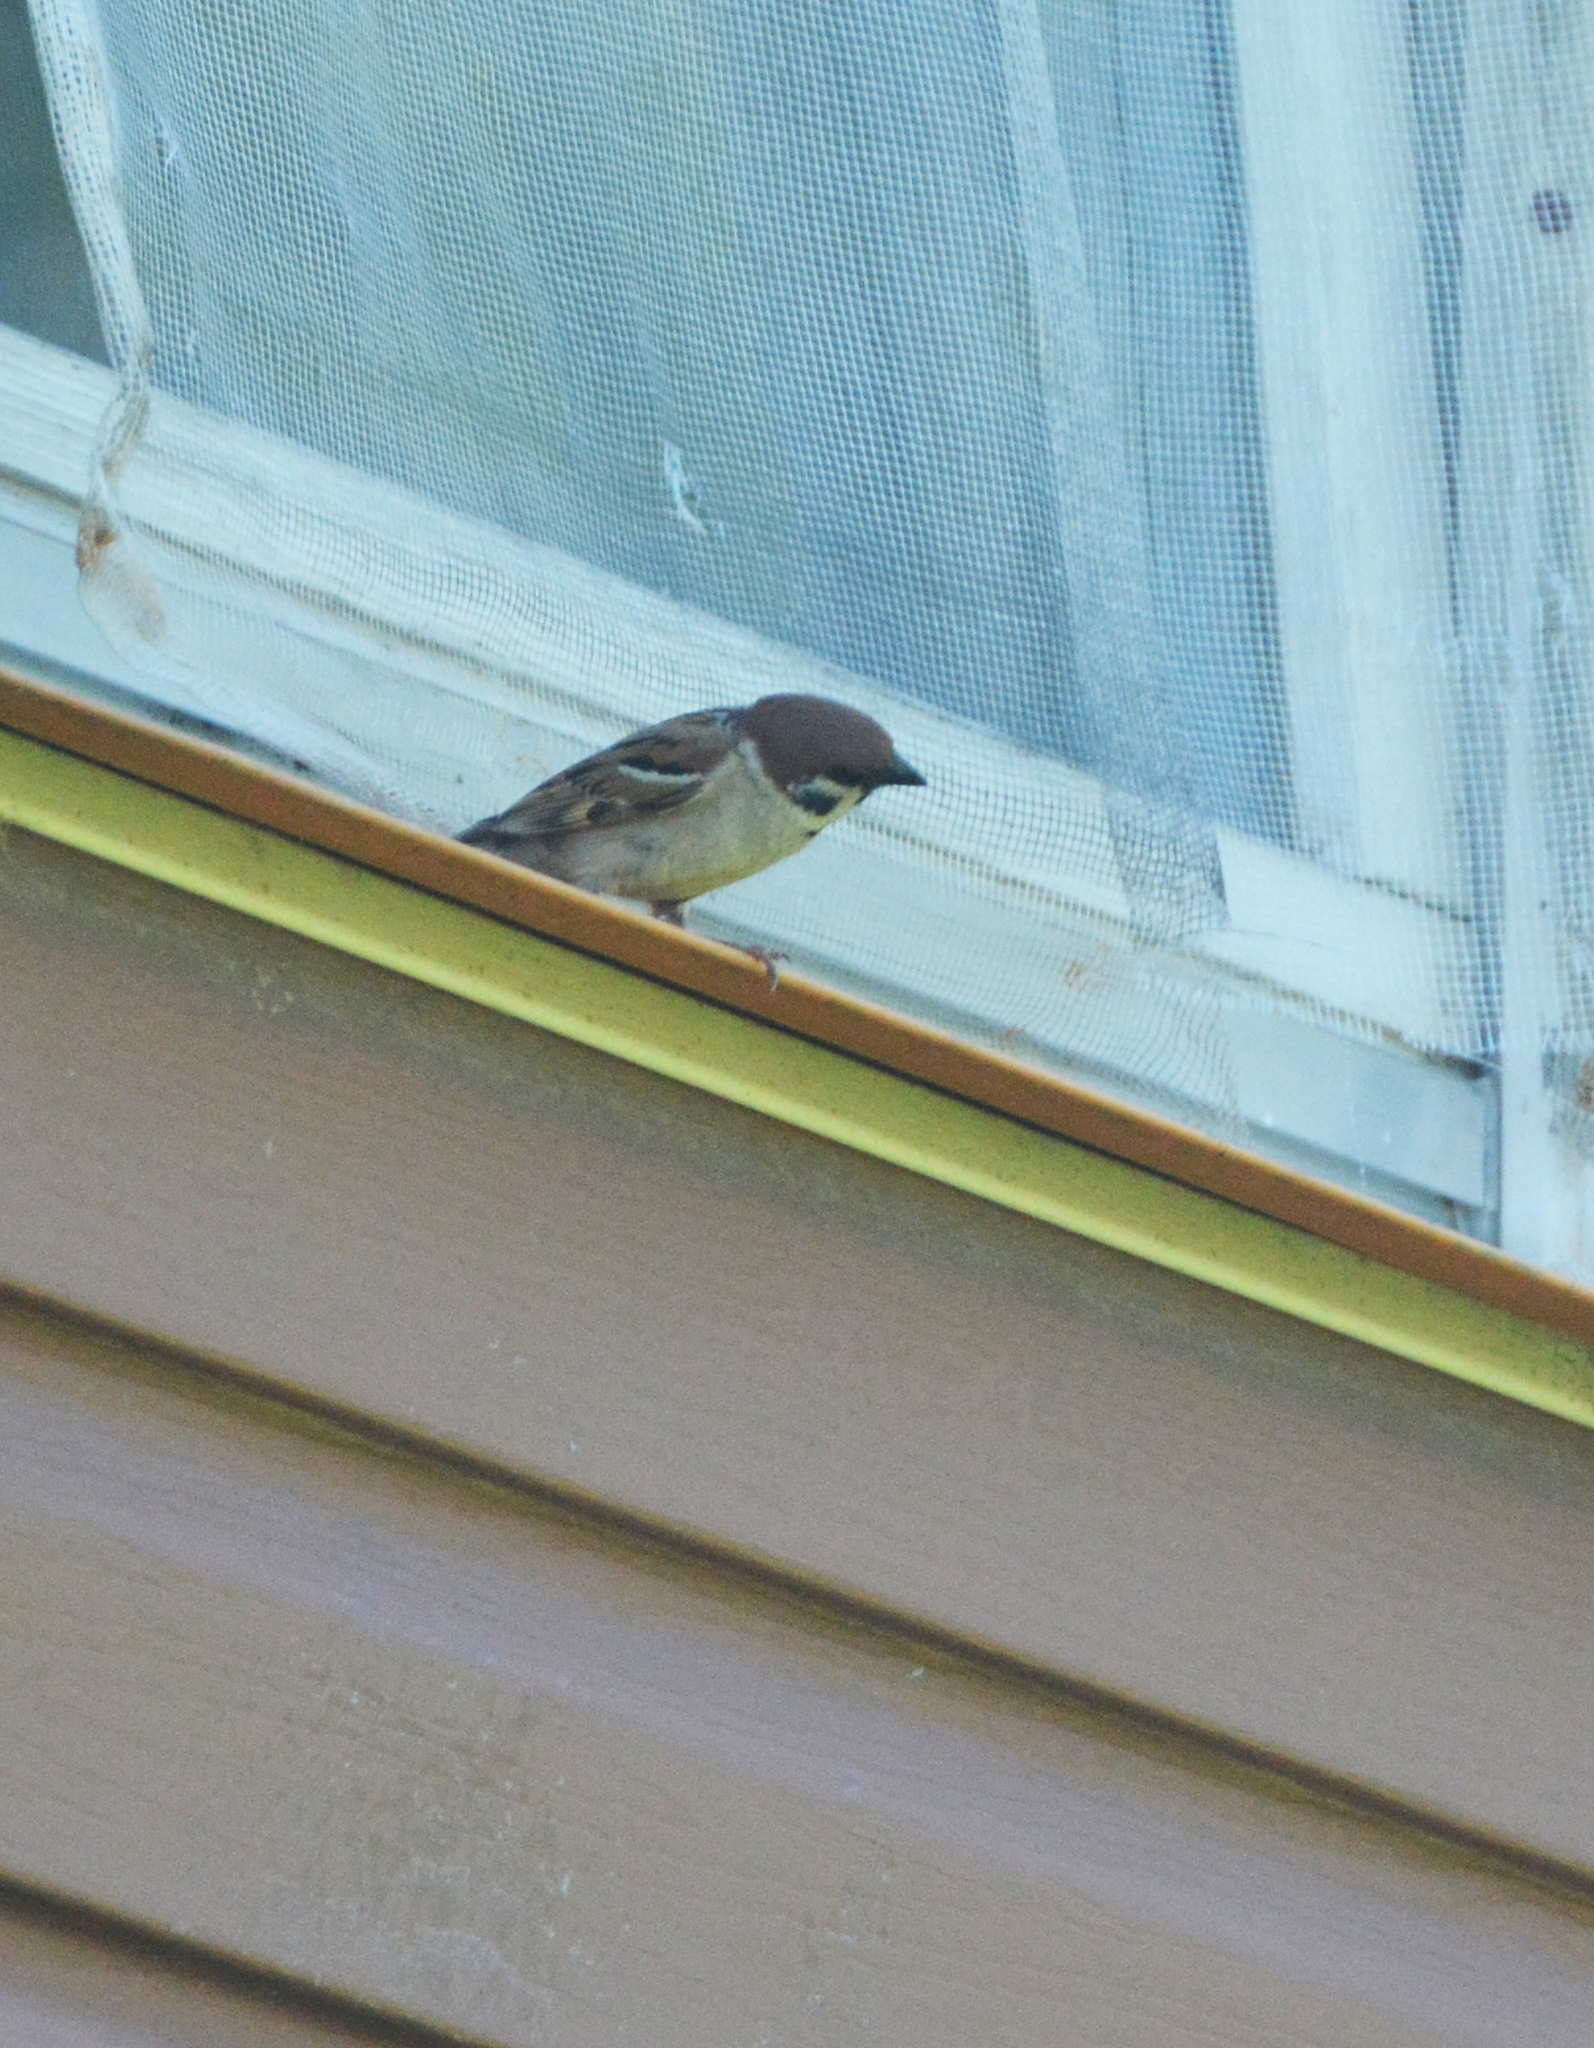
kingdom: Animalia
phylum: Chordata
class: Aves
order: Passeriformes
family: Passeridae
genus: Passer
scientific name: Passer montanus
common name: Eurasian tree sparrow
